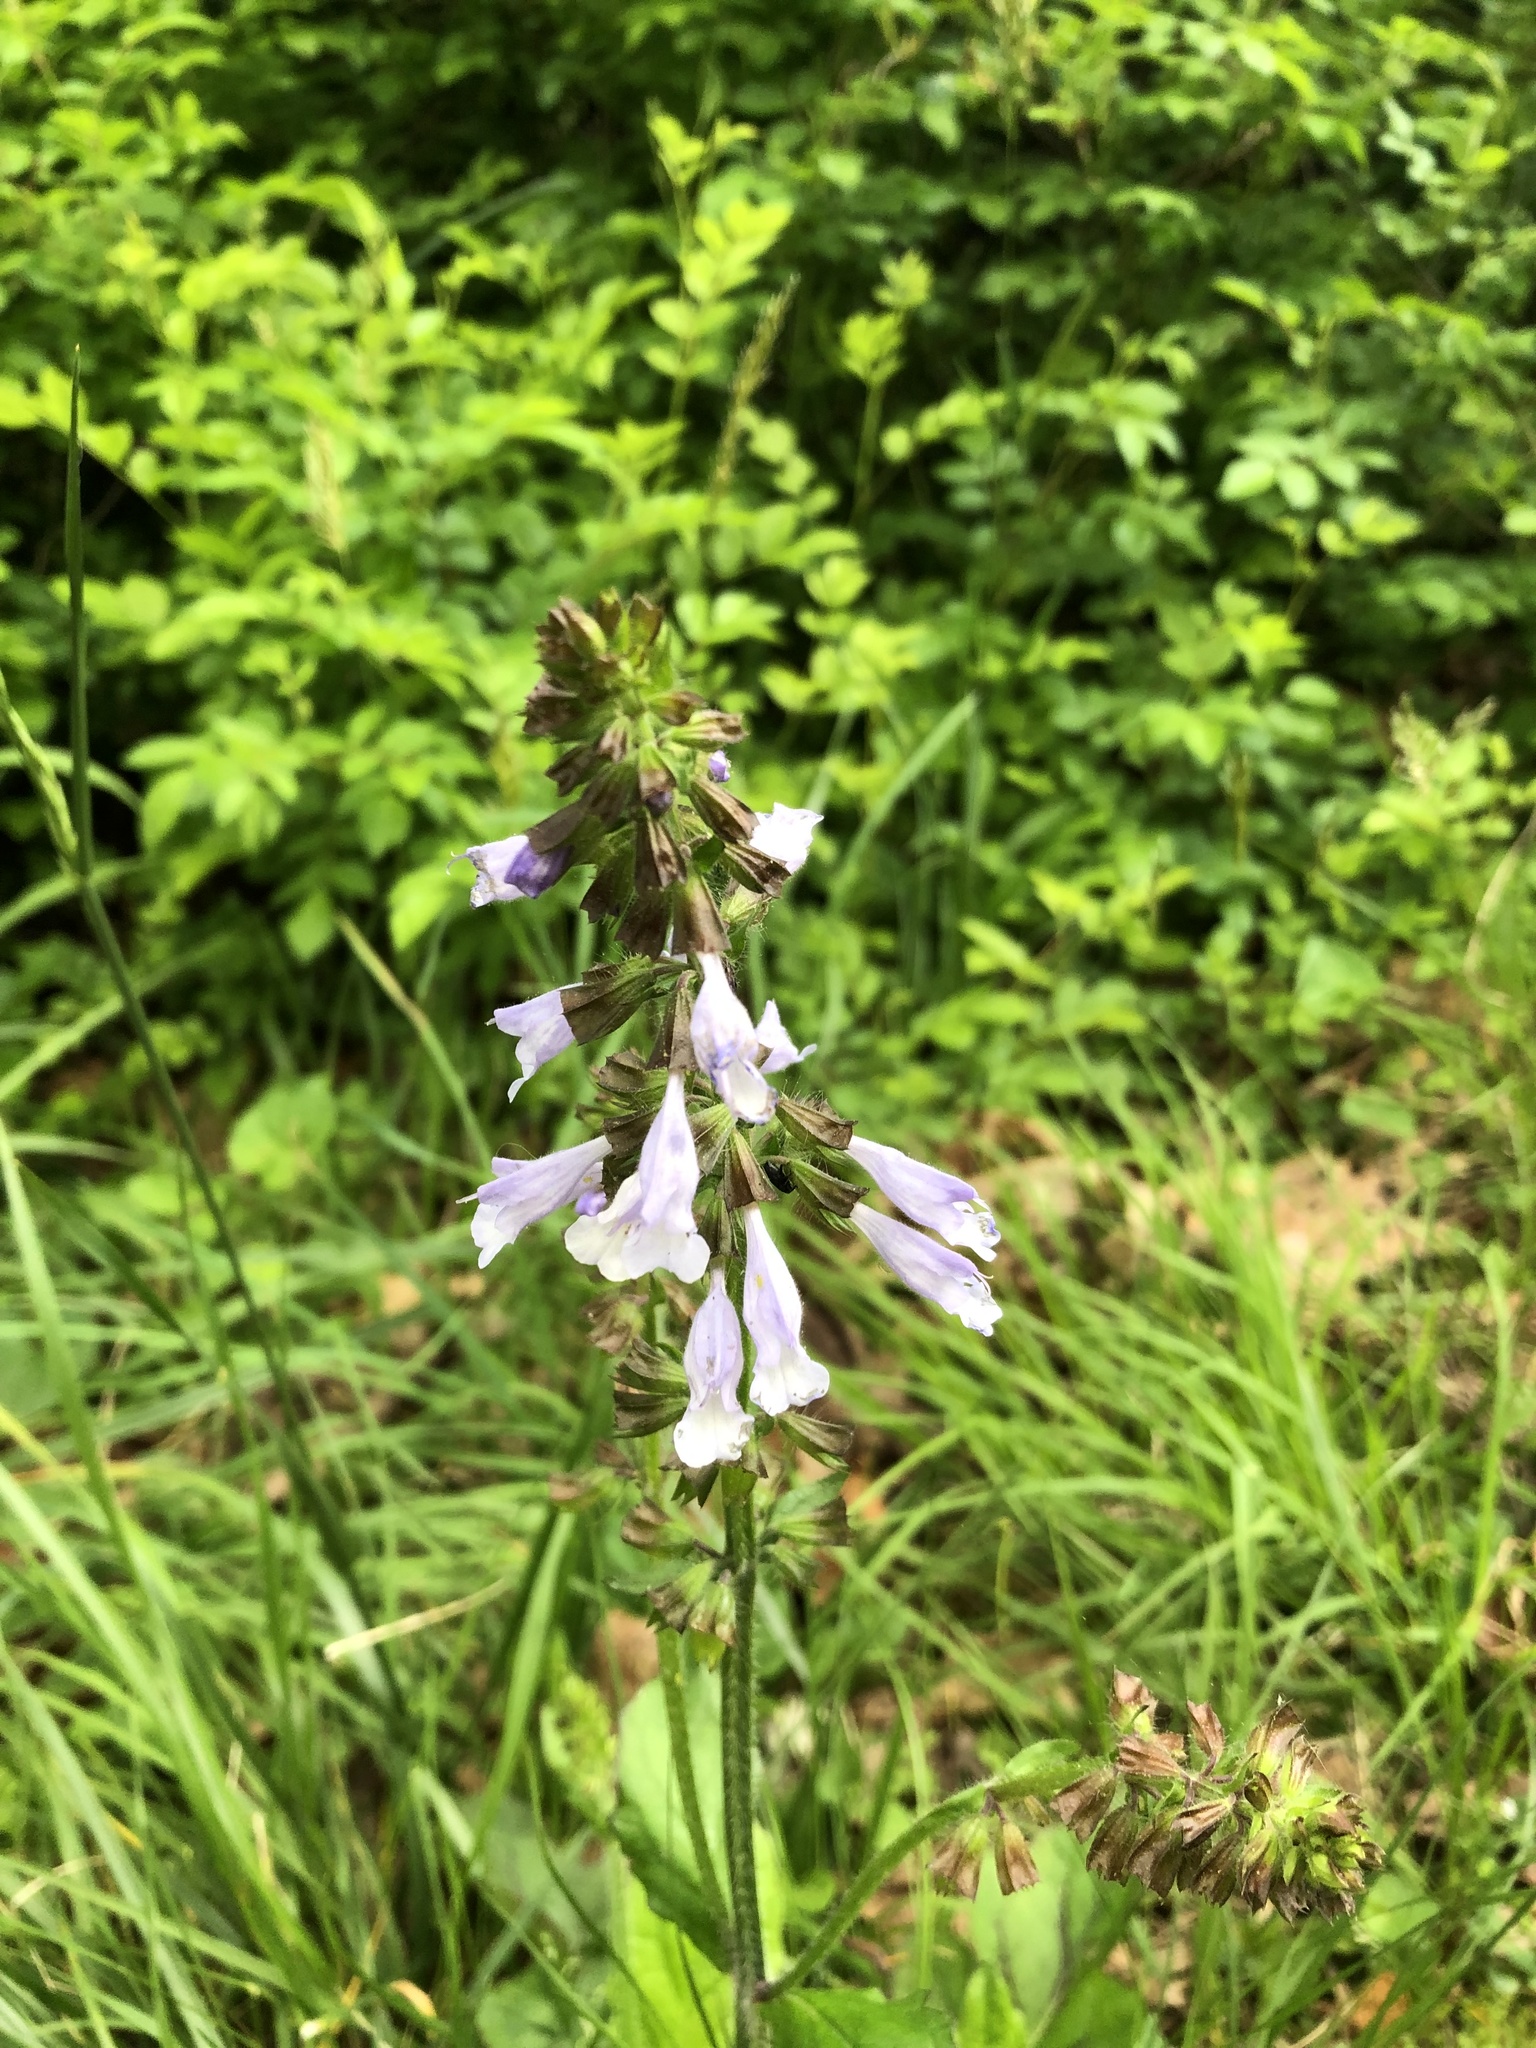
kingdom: Plantae
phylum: Tracheophyta
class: Magnoliopsida
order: Lamiales
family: Lamiaceae
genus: Salvia
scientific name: Salvia lyrata
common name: Cancerweed
